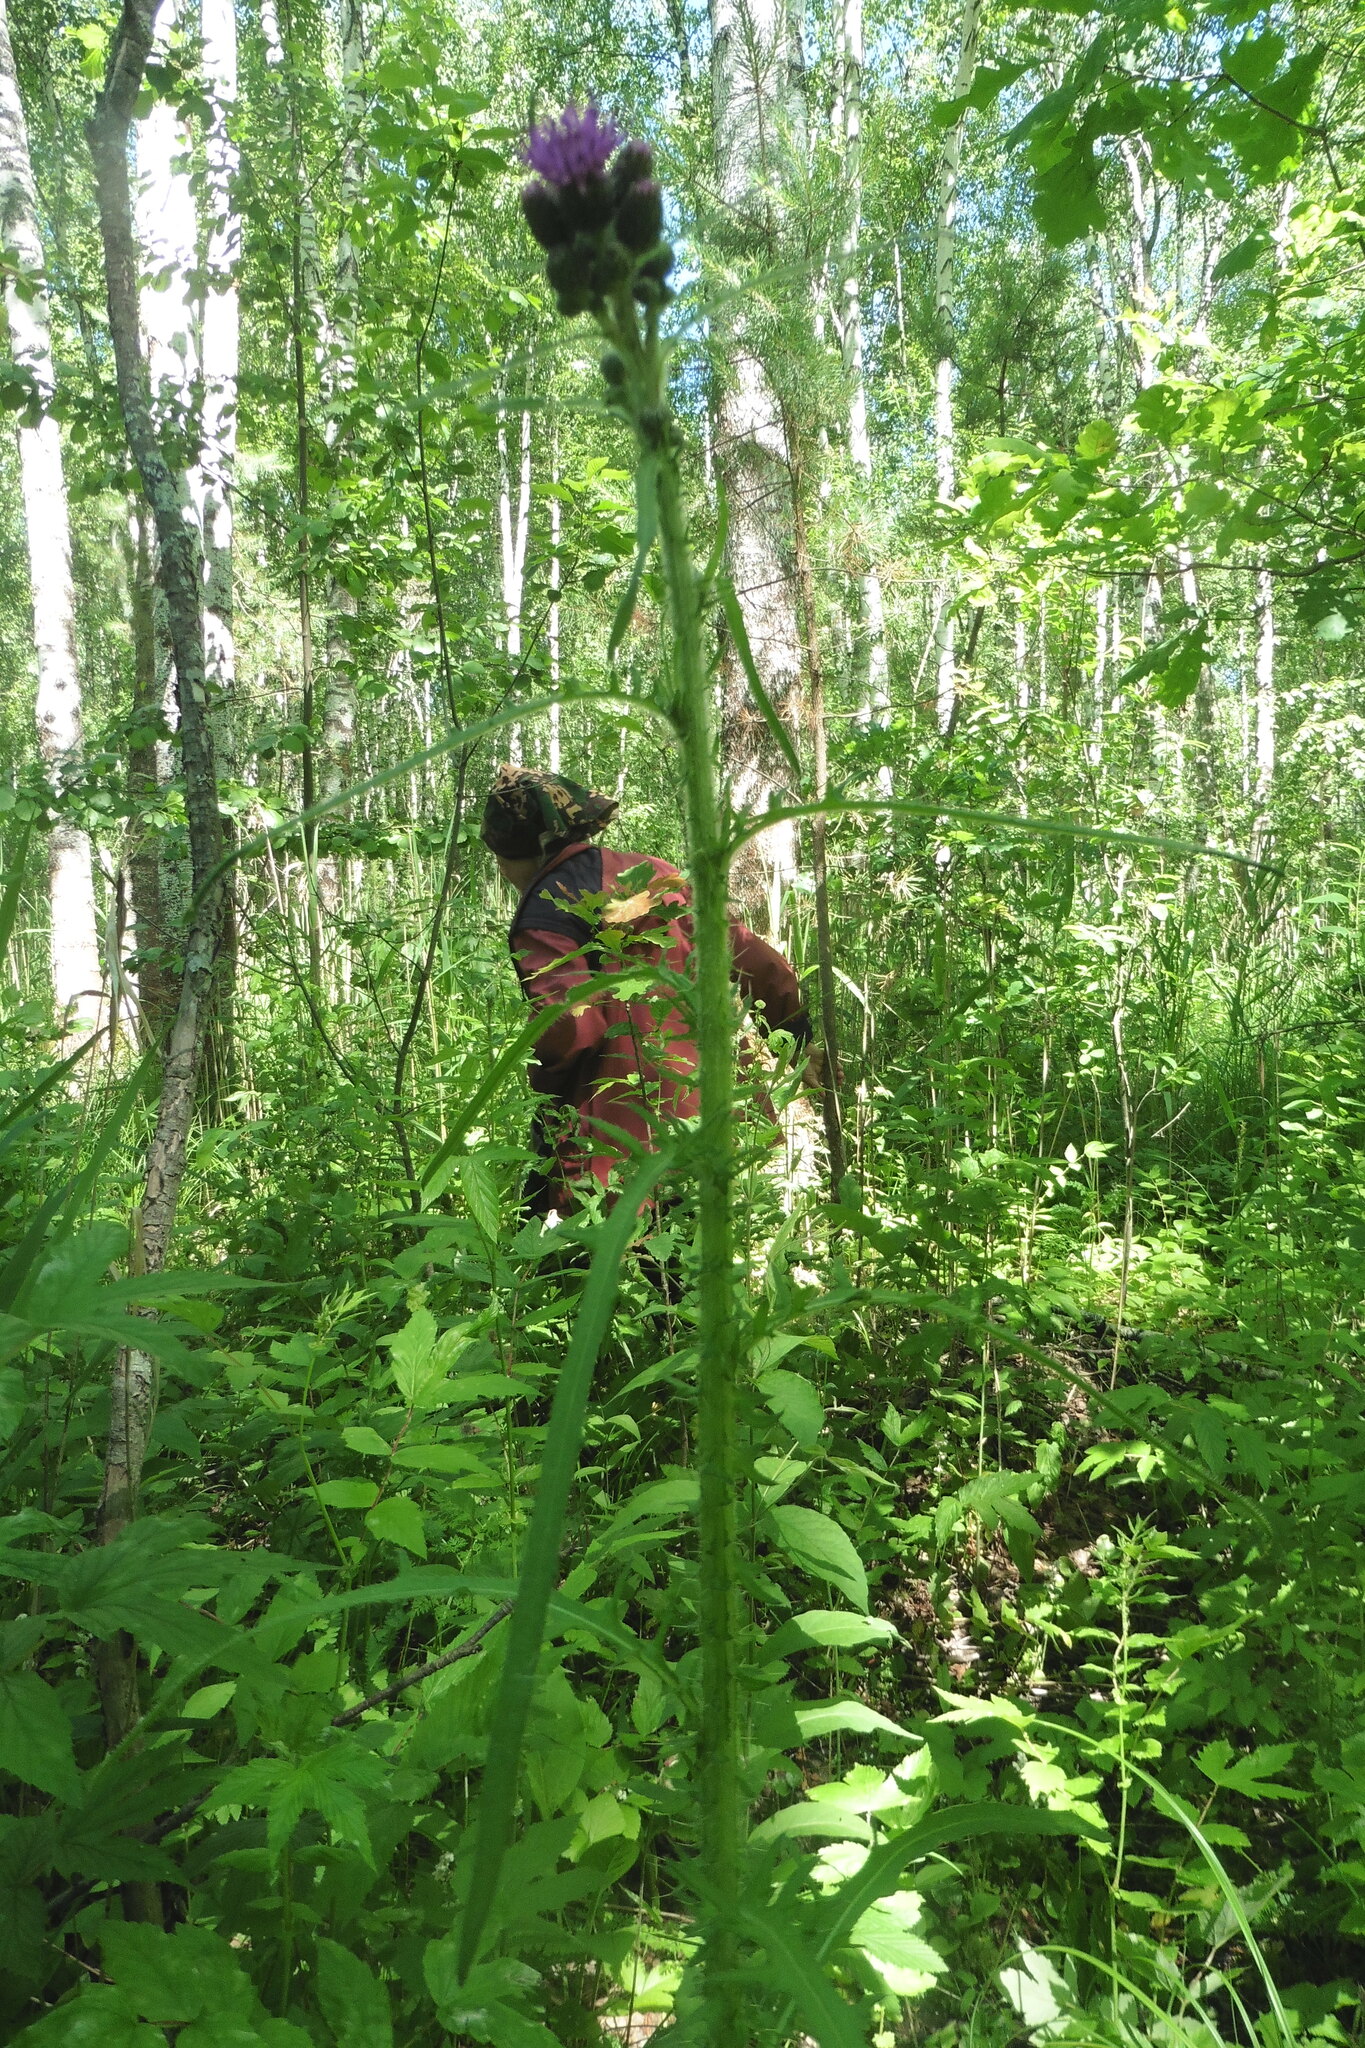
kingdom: Plantae
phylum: Tracheophyta
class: Magnoliopsida
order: Asterales
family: Asteraceae
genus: Cirsium
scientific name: Cirsium palustre
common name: Marsh thistle
